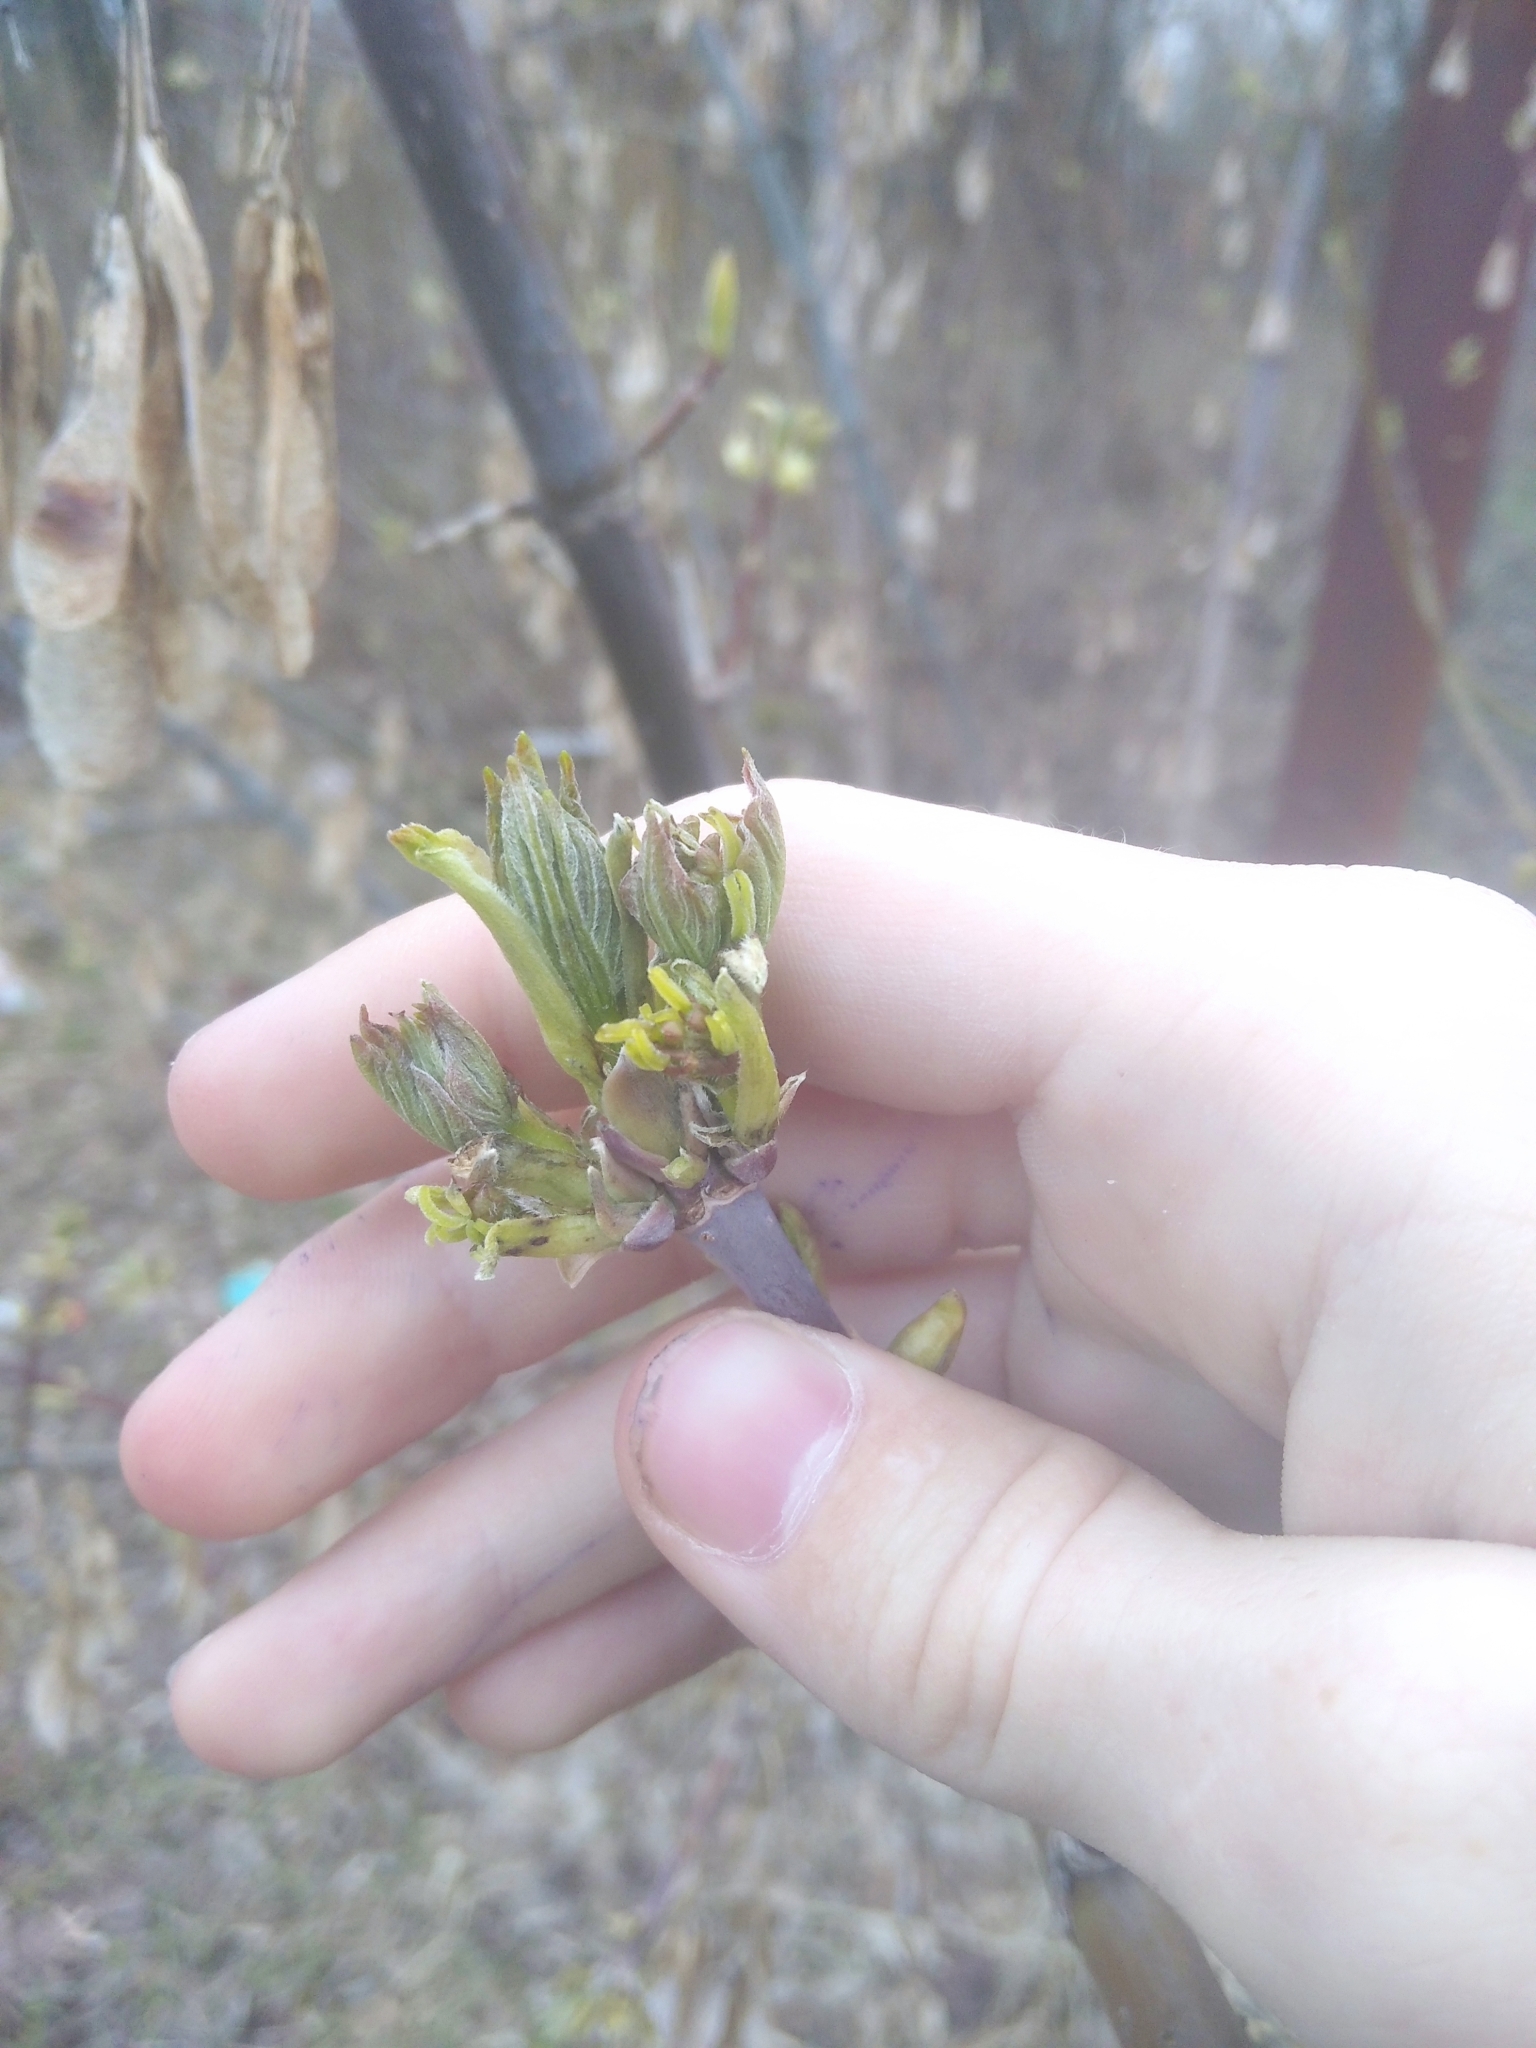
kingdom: Plantae
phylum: Tracheophyta
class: Magnoliopsida
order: Sapindales
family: Sapindaceae
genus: Acer
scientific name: Acer negundo
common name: Ashleaf maple
